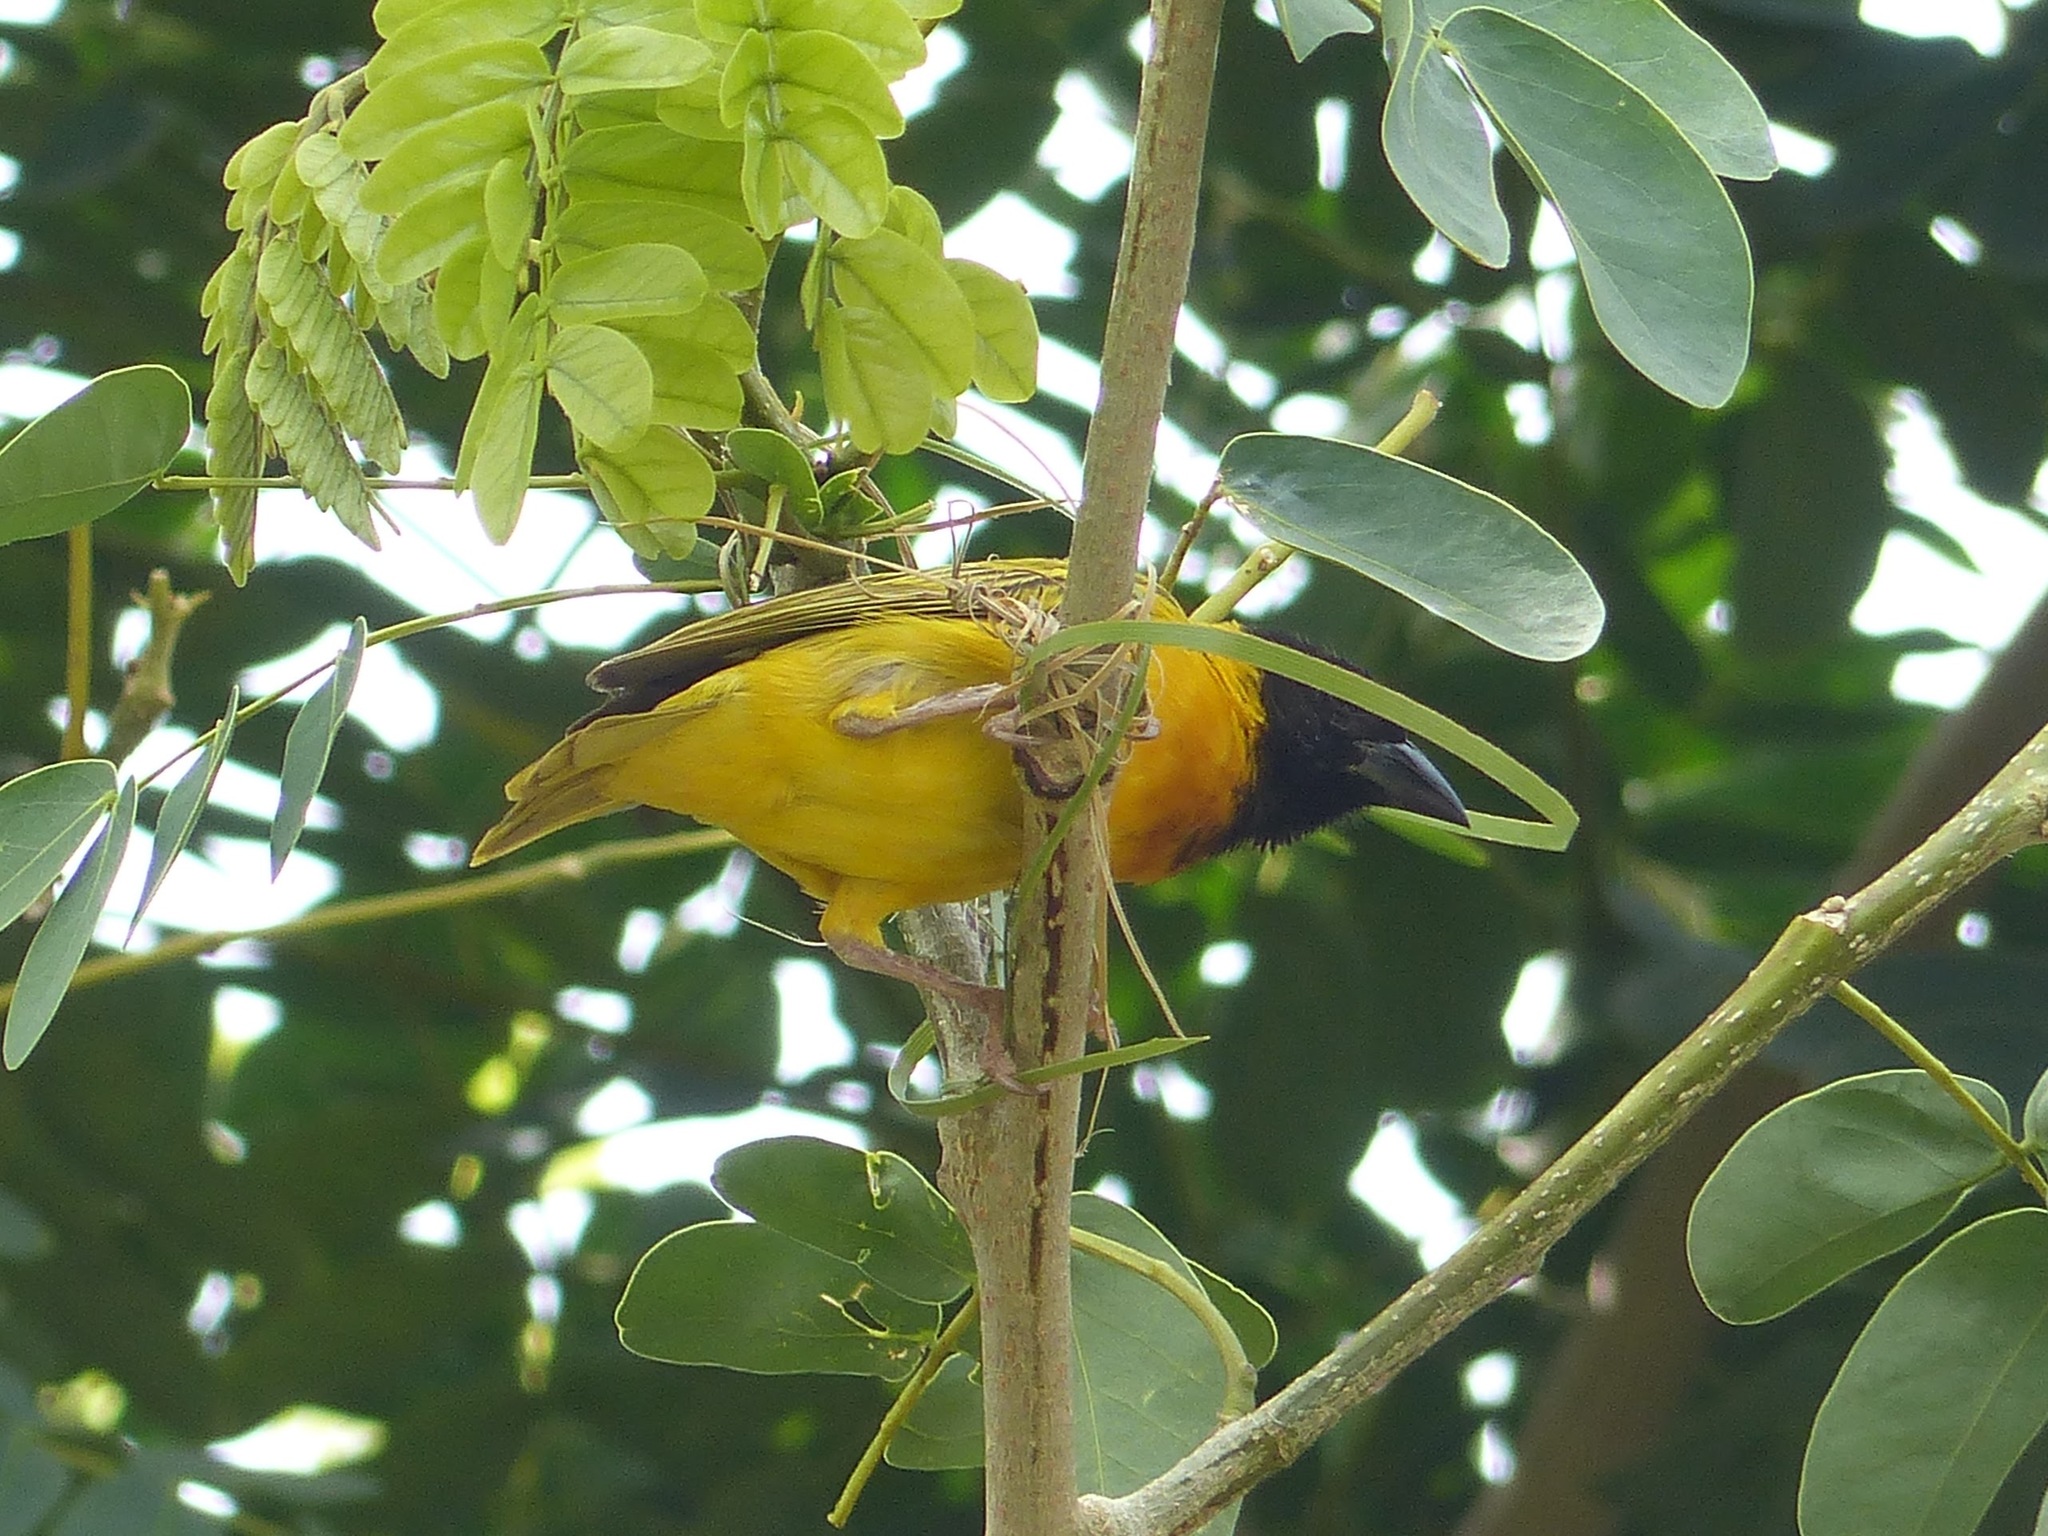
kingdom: Animalia
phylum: Chordata
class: Aves
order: Passeriformes
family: Ploceidae
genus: Ploceus
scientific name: Ploceus cucullatus
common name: Village weaver
